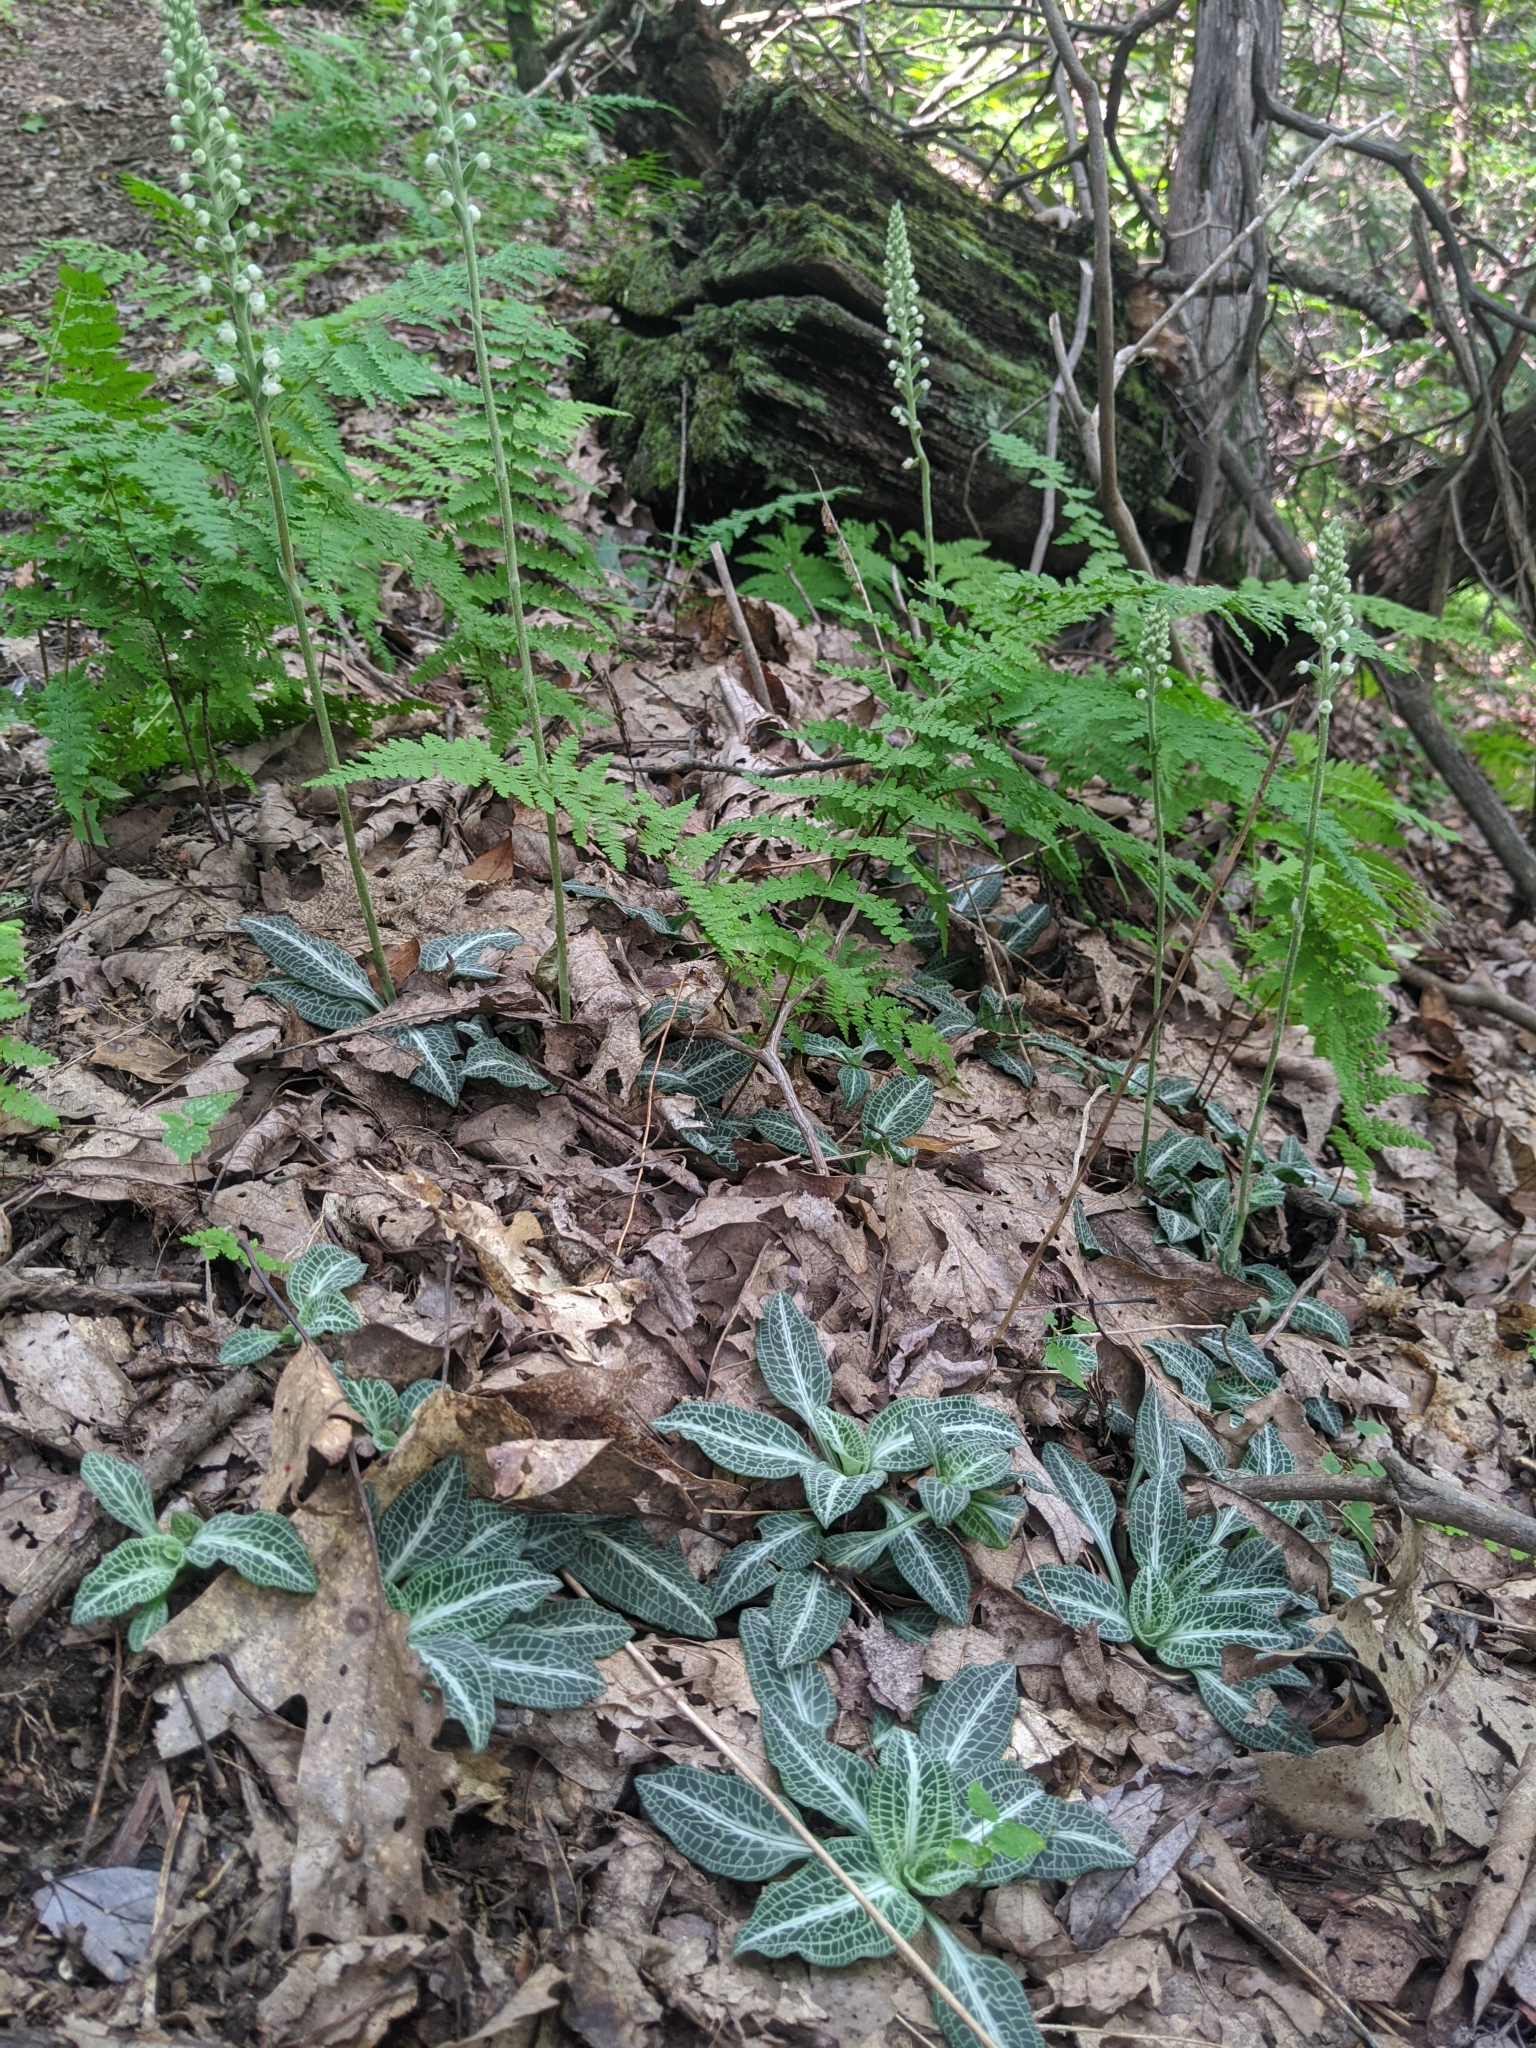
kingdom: Plantae
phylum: Tracheophyta
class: Liliopsida
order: Asparagales
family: Orchidaceae
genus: Goodyera
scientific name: Goodyera pubescens
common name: Downy rattlesnake-plantain
